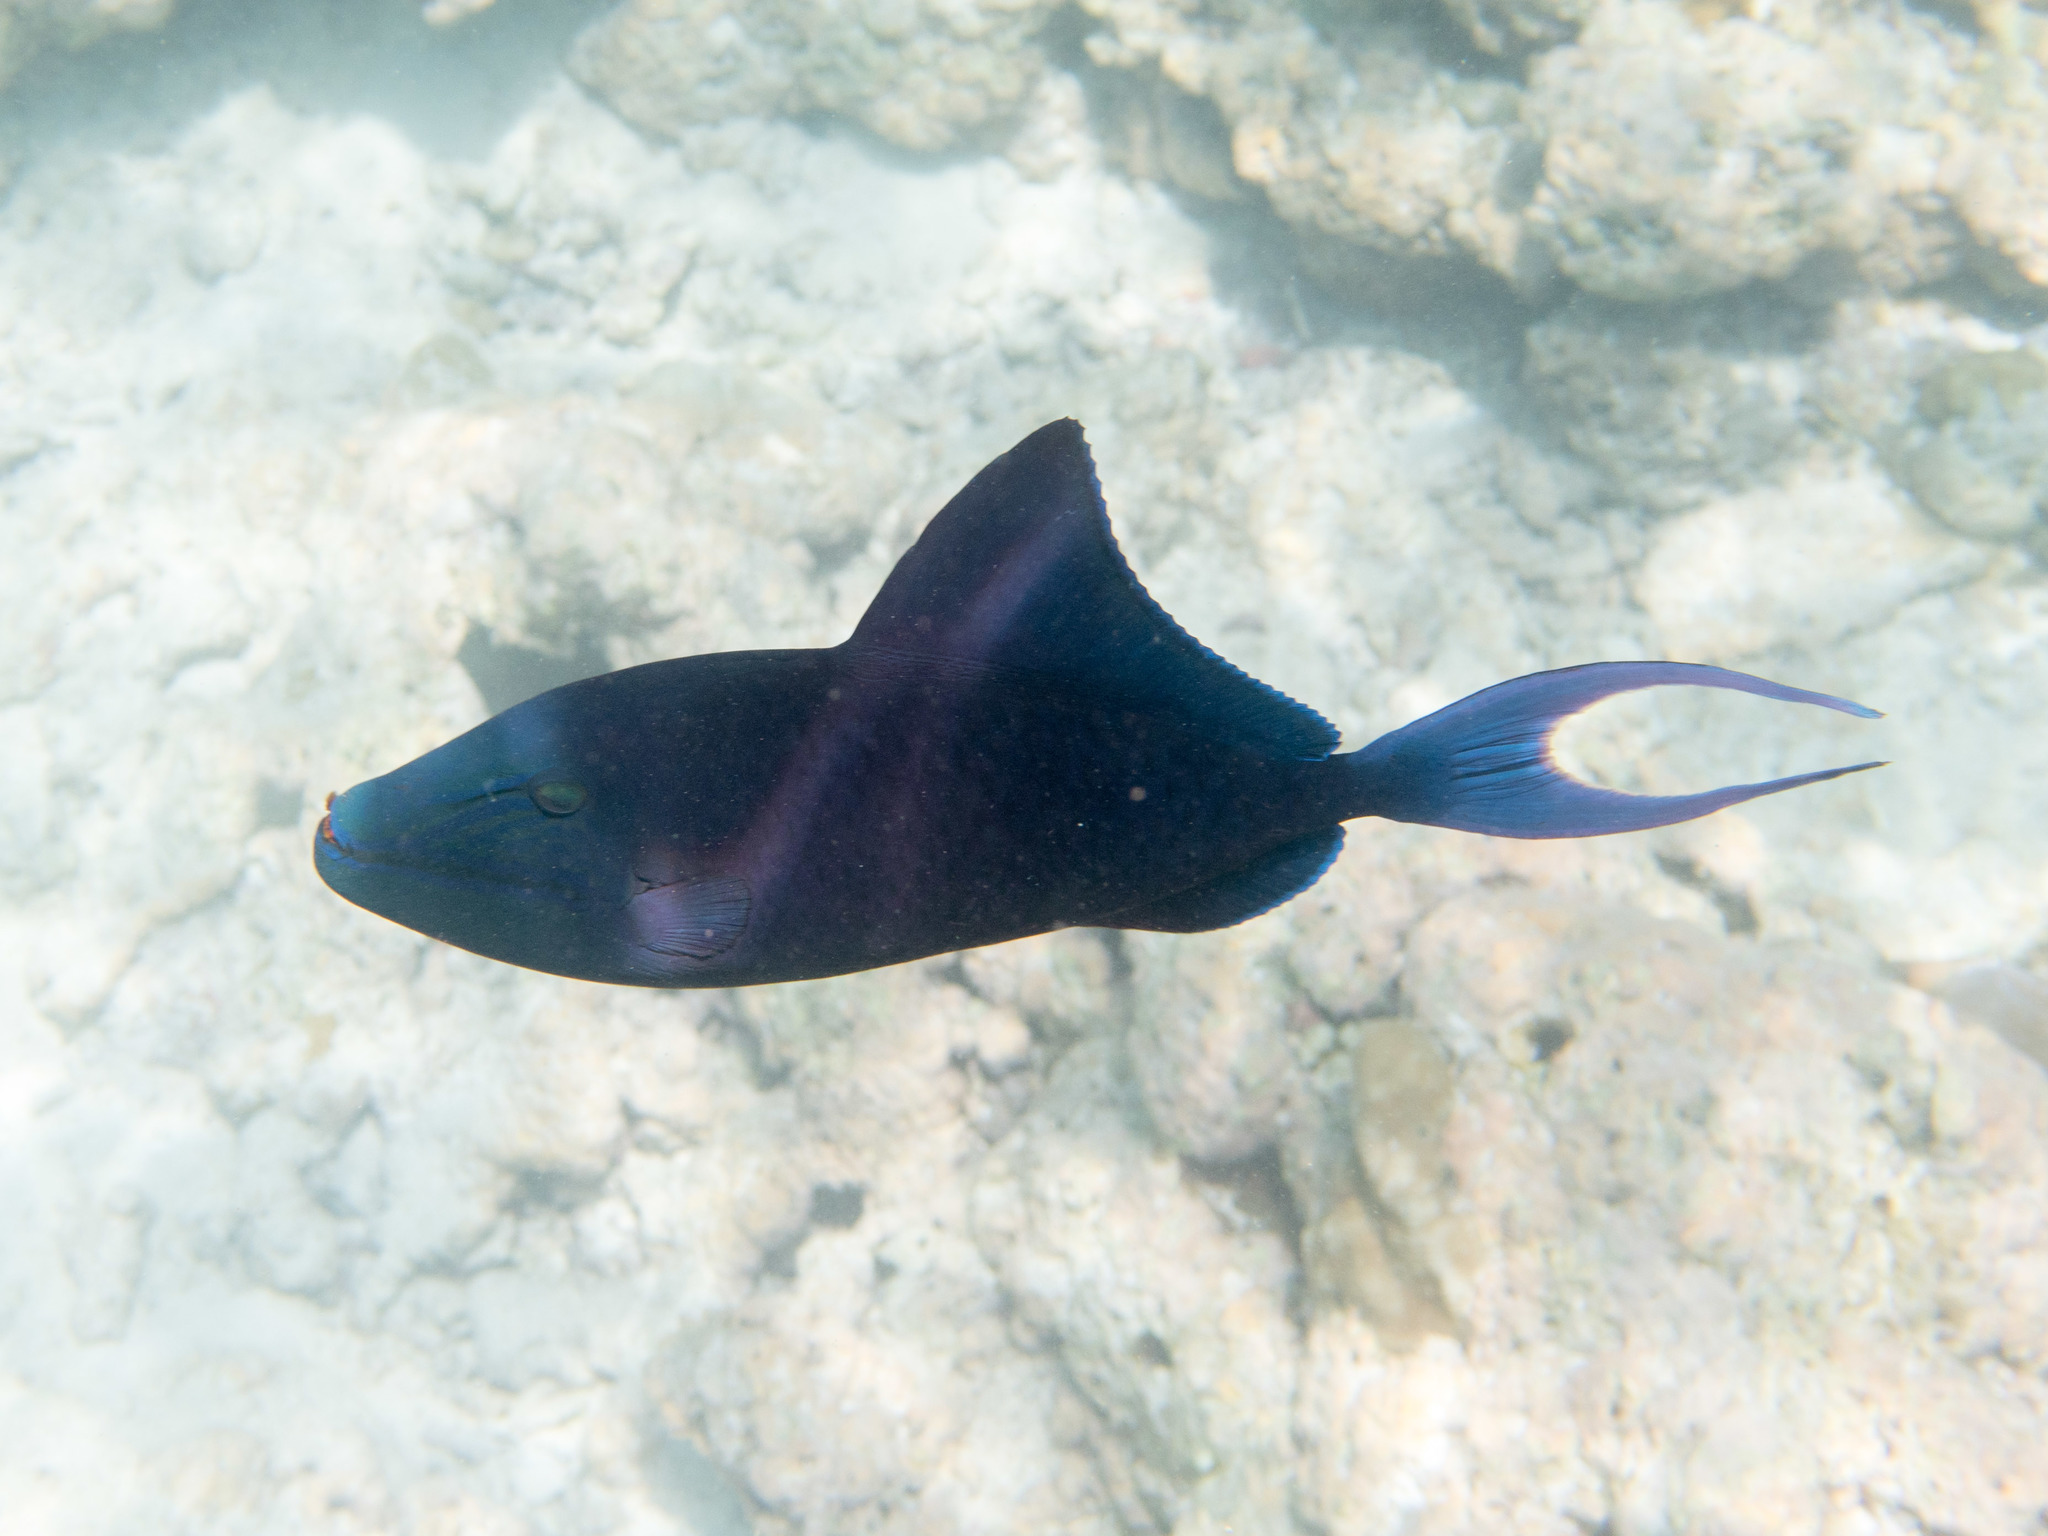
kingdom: Animalia
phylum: Chordata
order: Tetraodontiformes
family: Balistidae
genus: Odonus
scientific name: Odonus niger
